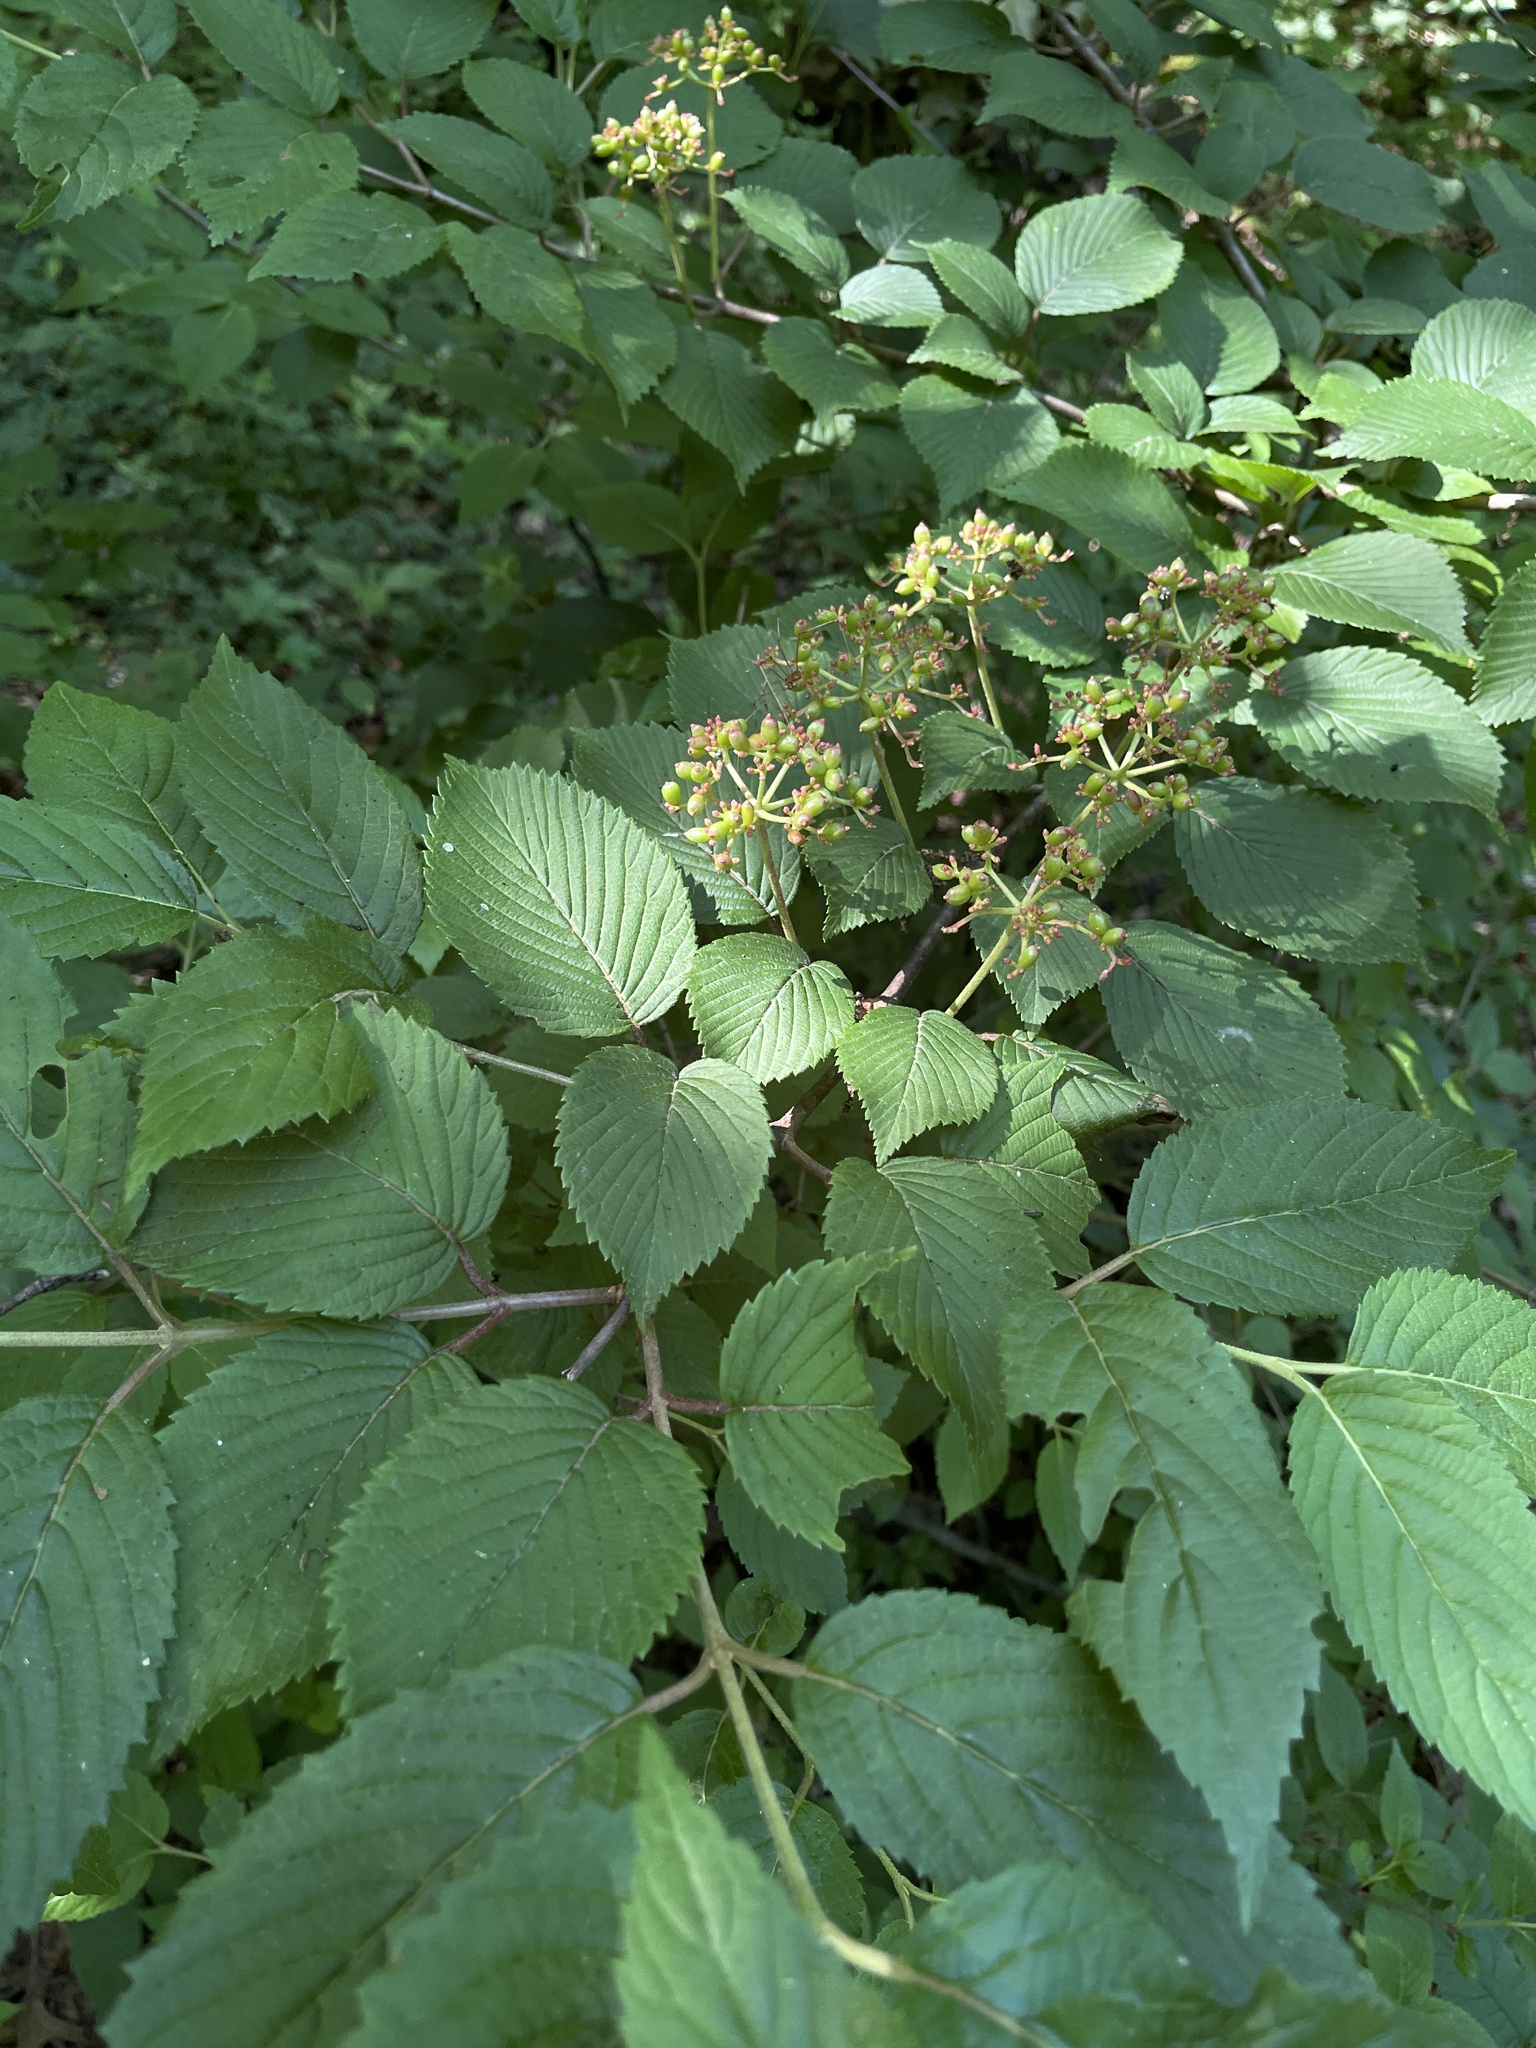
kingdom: Plantae
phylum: Tracheophyta
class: Magnoliopsida
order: Dipsacales
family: Viburnaceae
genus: Viburnum
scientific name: Viburnum plicatum
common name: Japanese snowball
